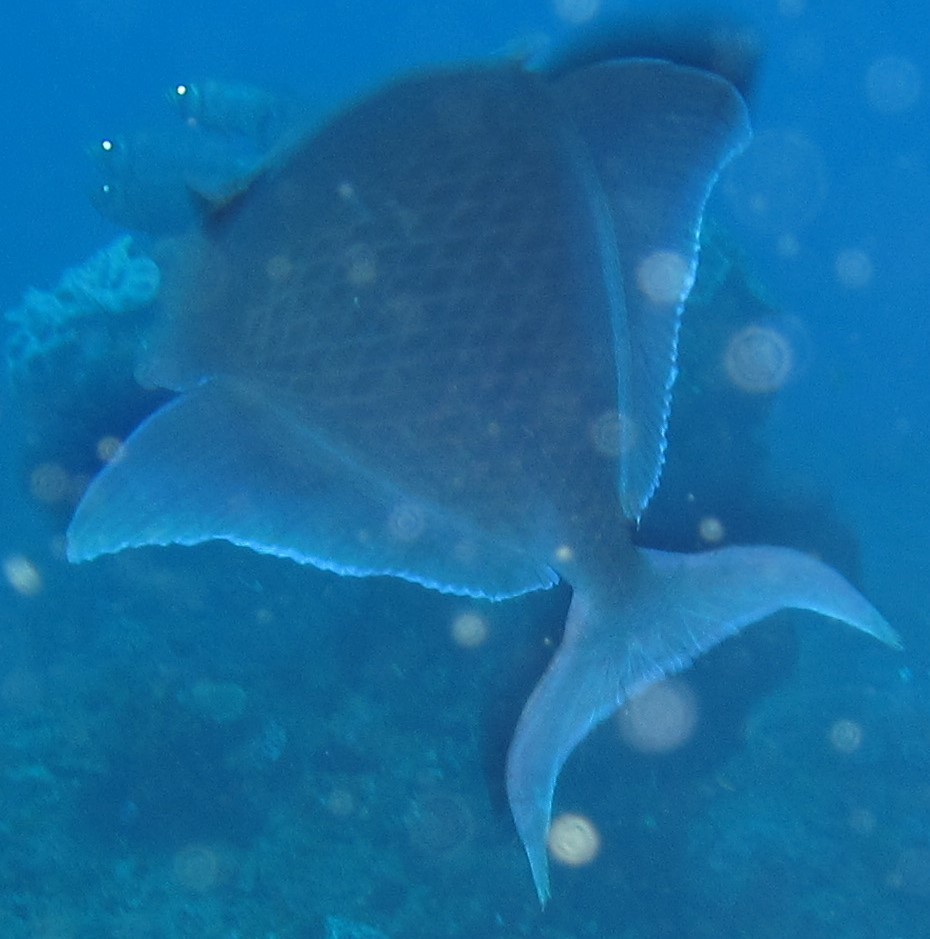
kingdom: Animalia
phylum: Chordata
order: Tetraodontiformes
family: Balistidae
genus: Odonus
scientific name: Odonus niger
